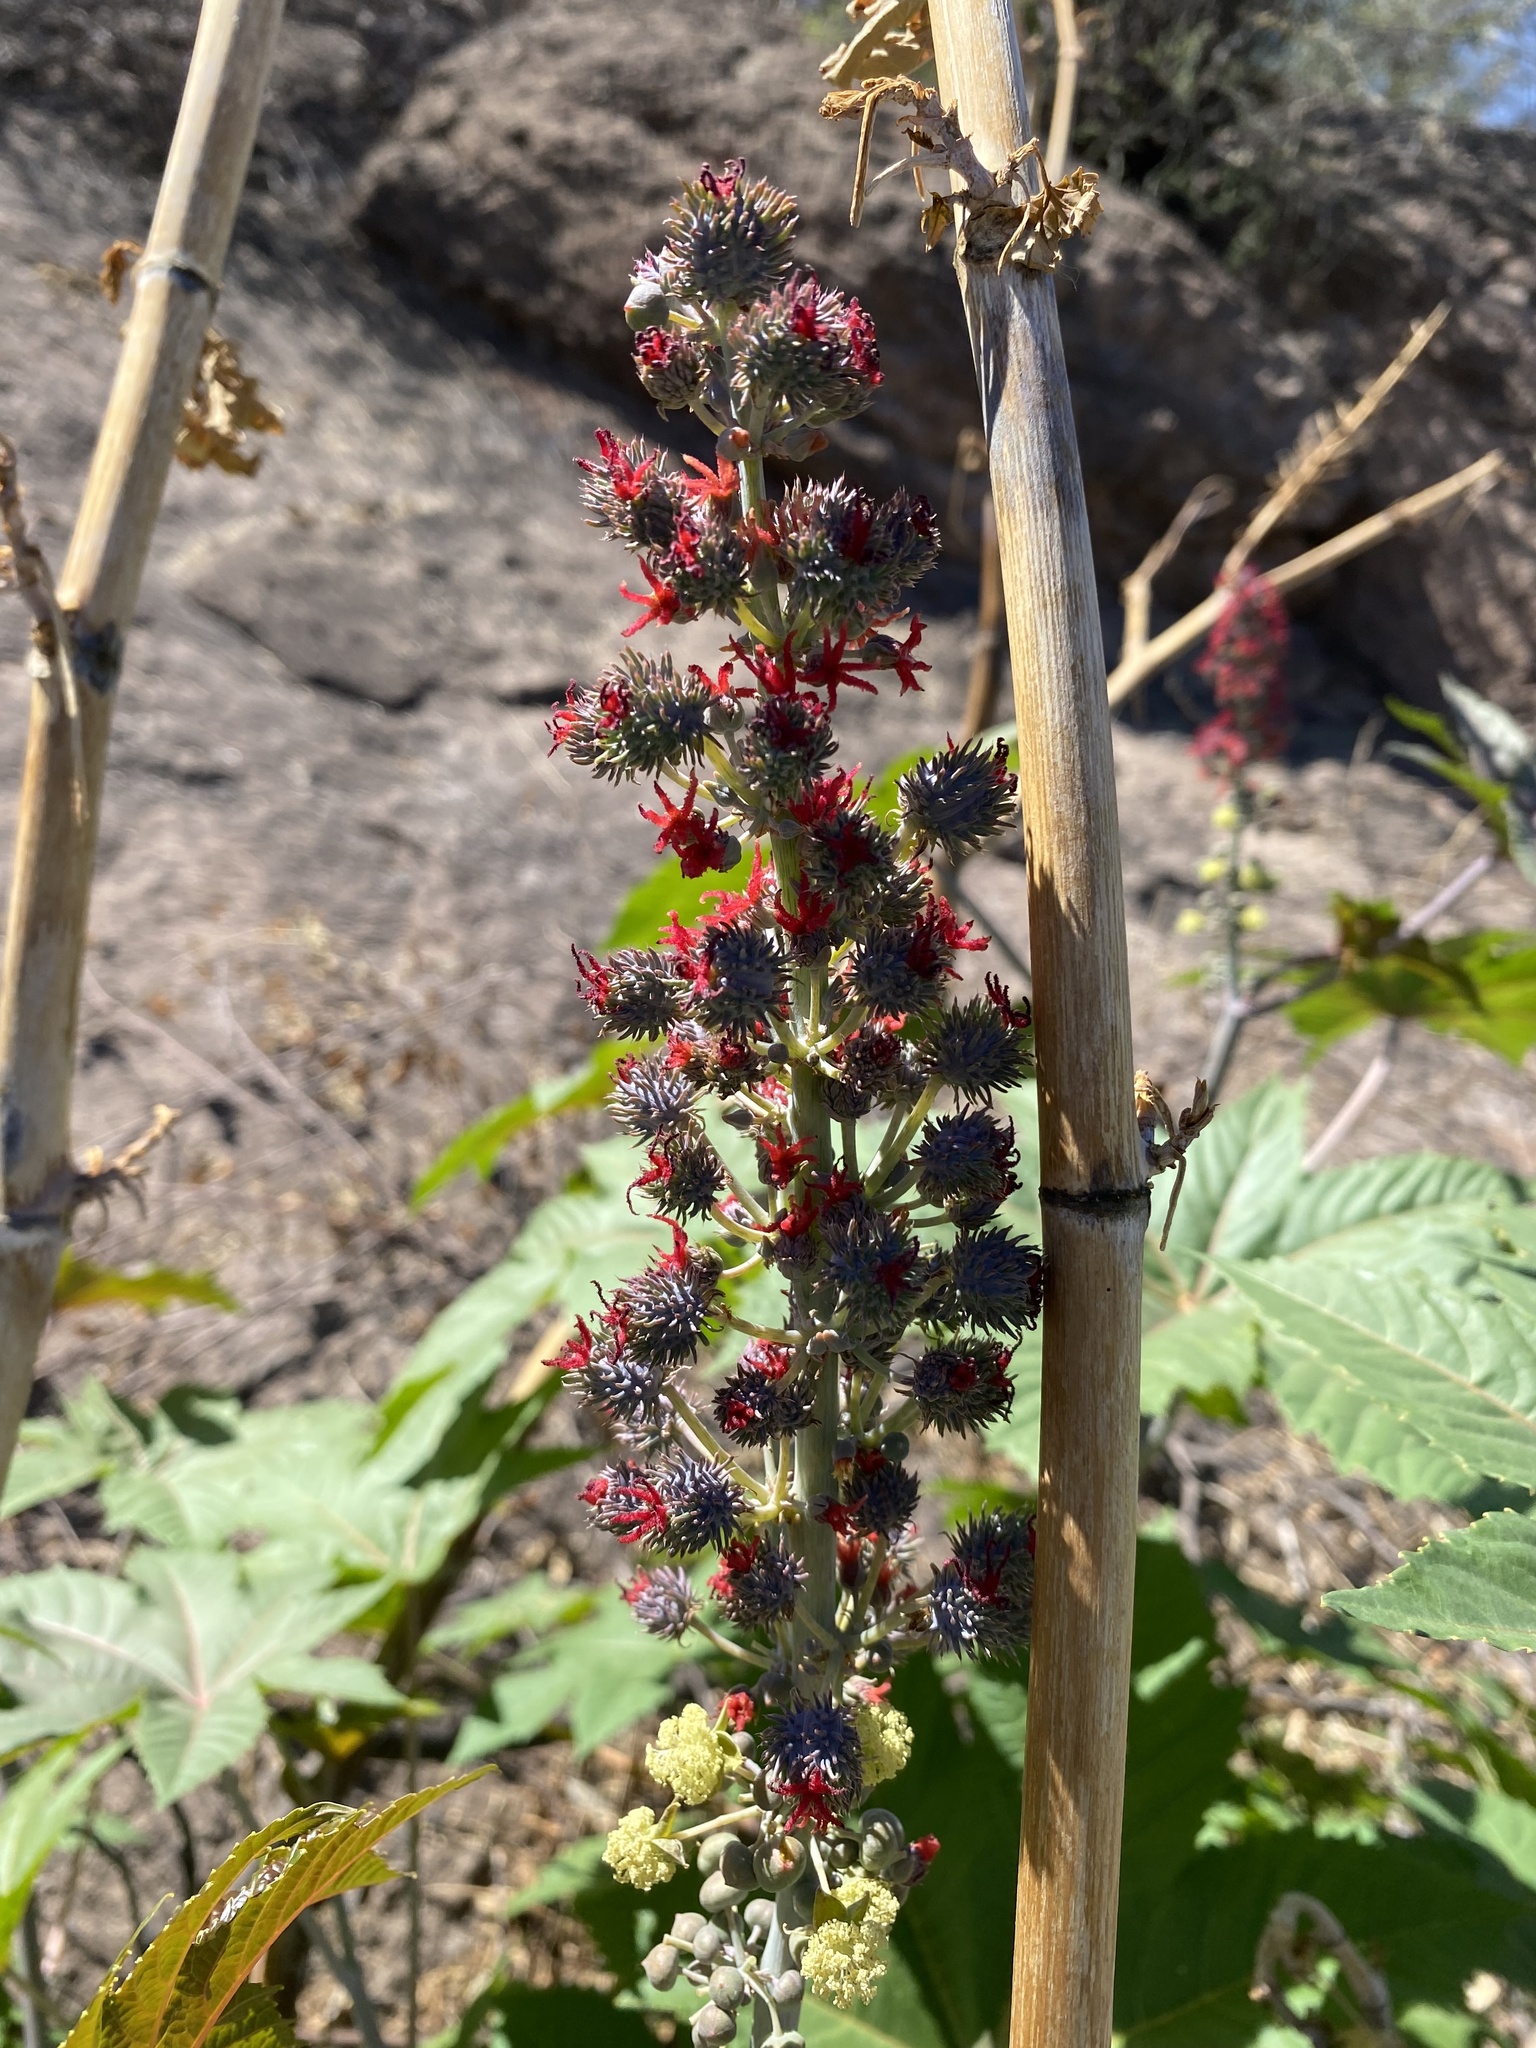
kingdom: Plantae
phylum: Tracheophyta
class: Magnoliopsida
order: Malpighiales
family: Euphorbiaceae
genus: Ricinus
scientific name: Ricinus communis
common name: Castor-oil-plant
